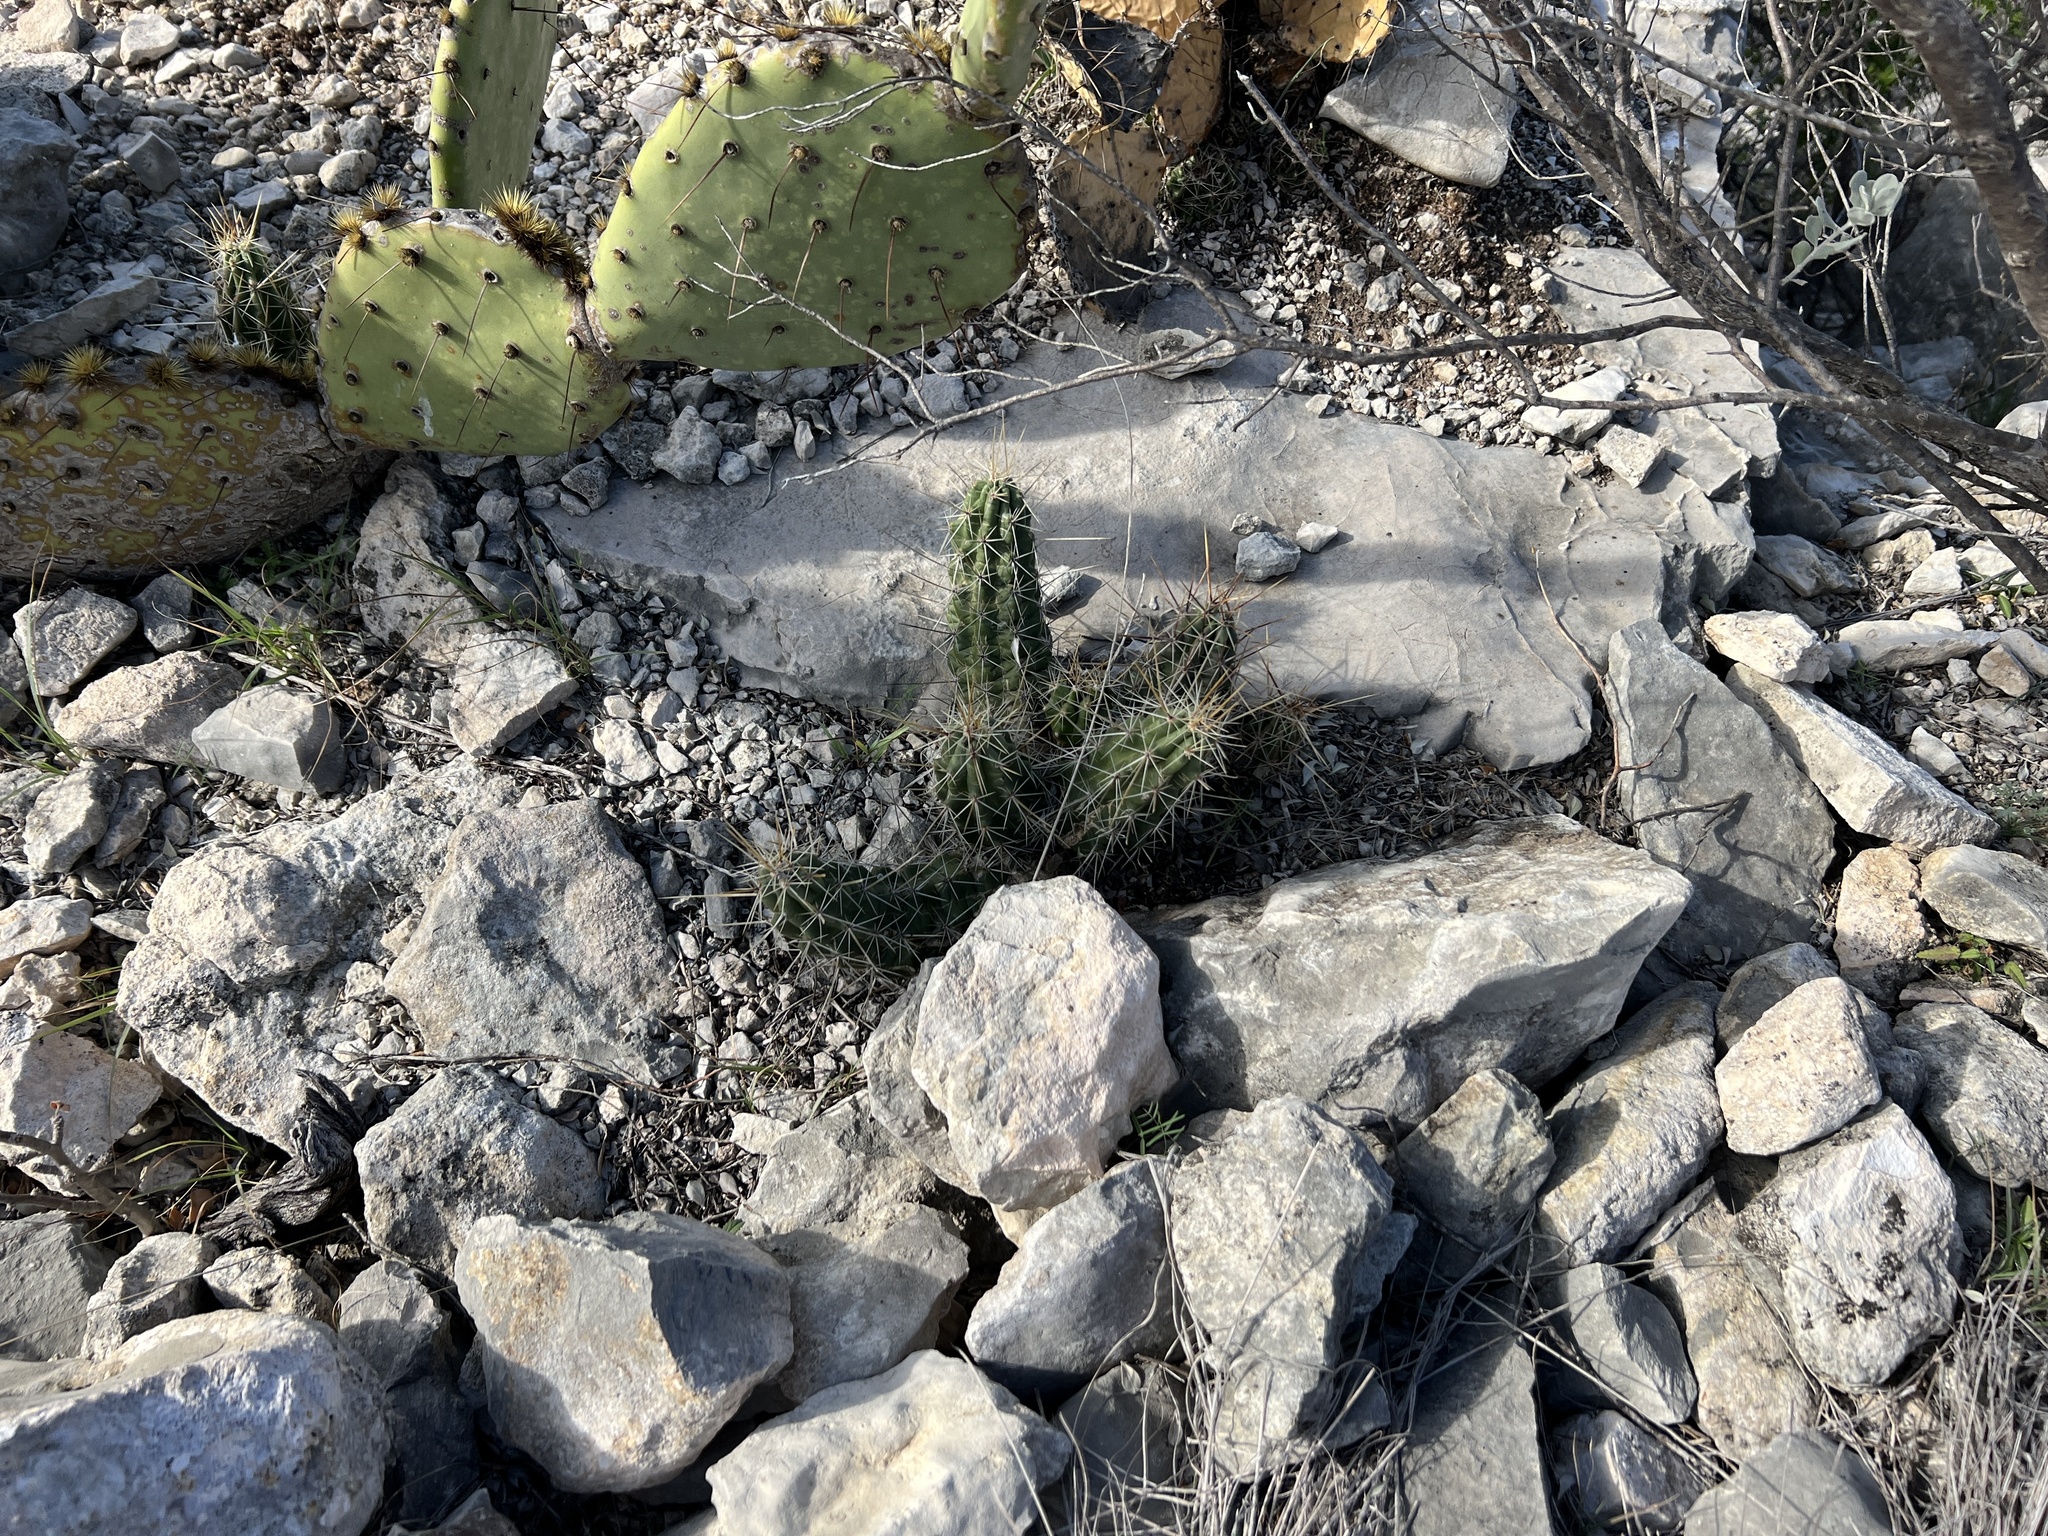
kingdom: Plantae
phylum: Tracheophyta
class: Magnoliopsida
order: Caryophyllales
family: Cactaceae
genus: Echinocereus
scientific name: Echinocereus enneacanthus
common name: Pitaya
